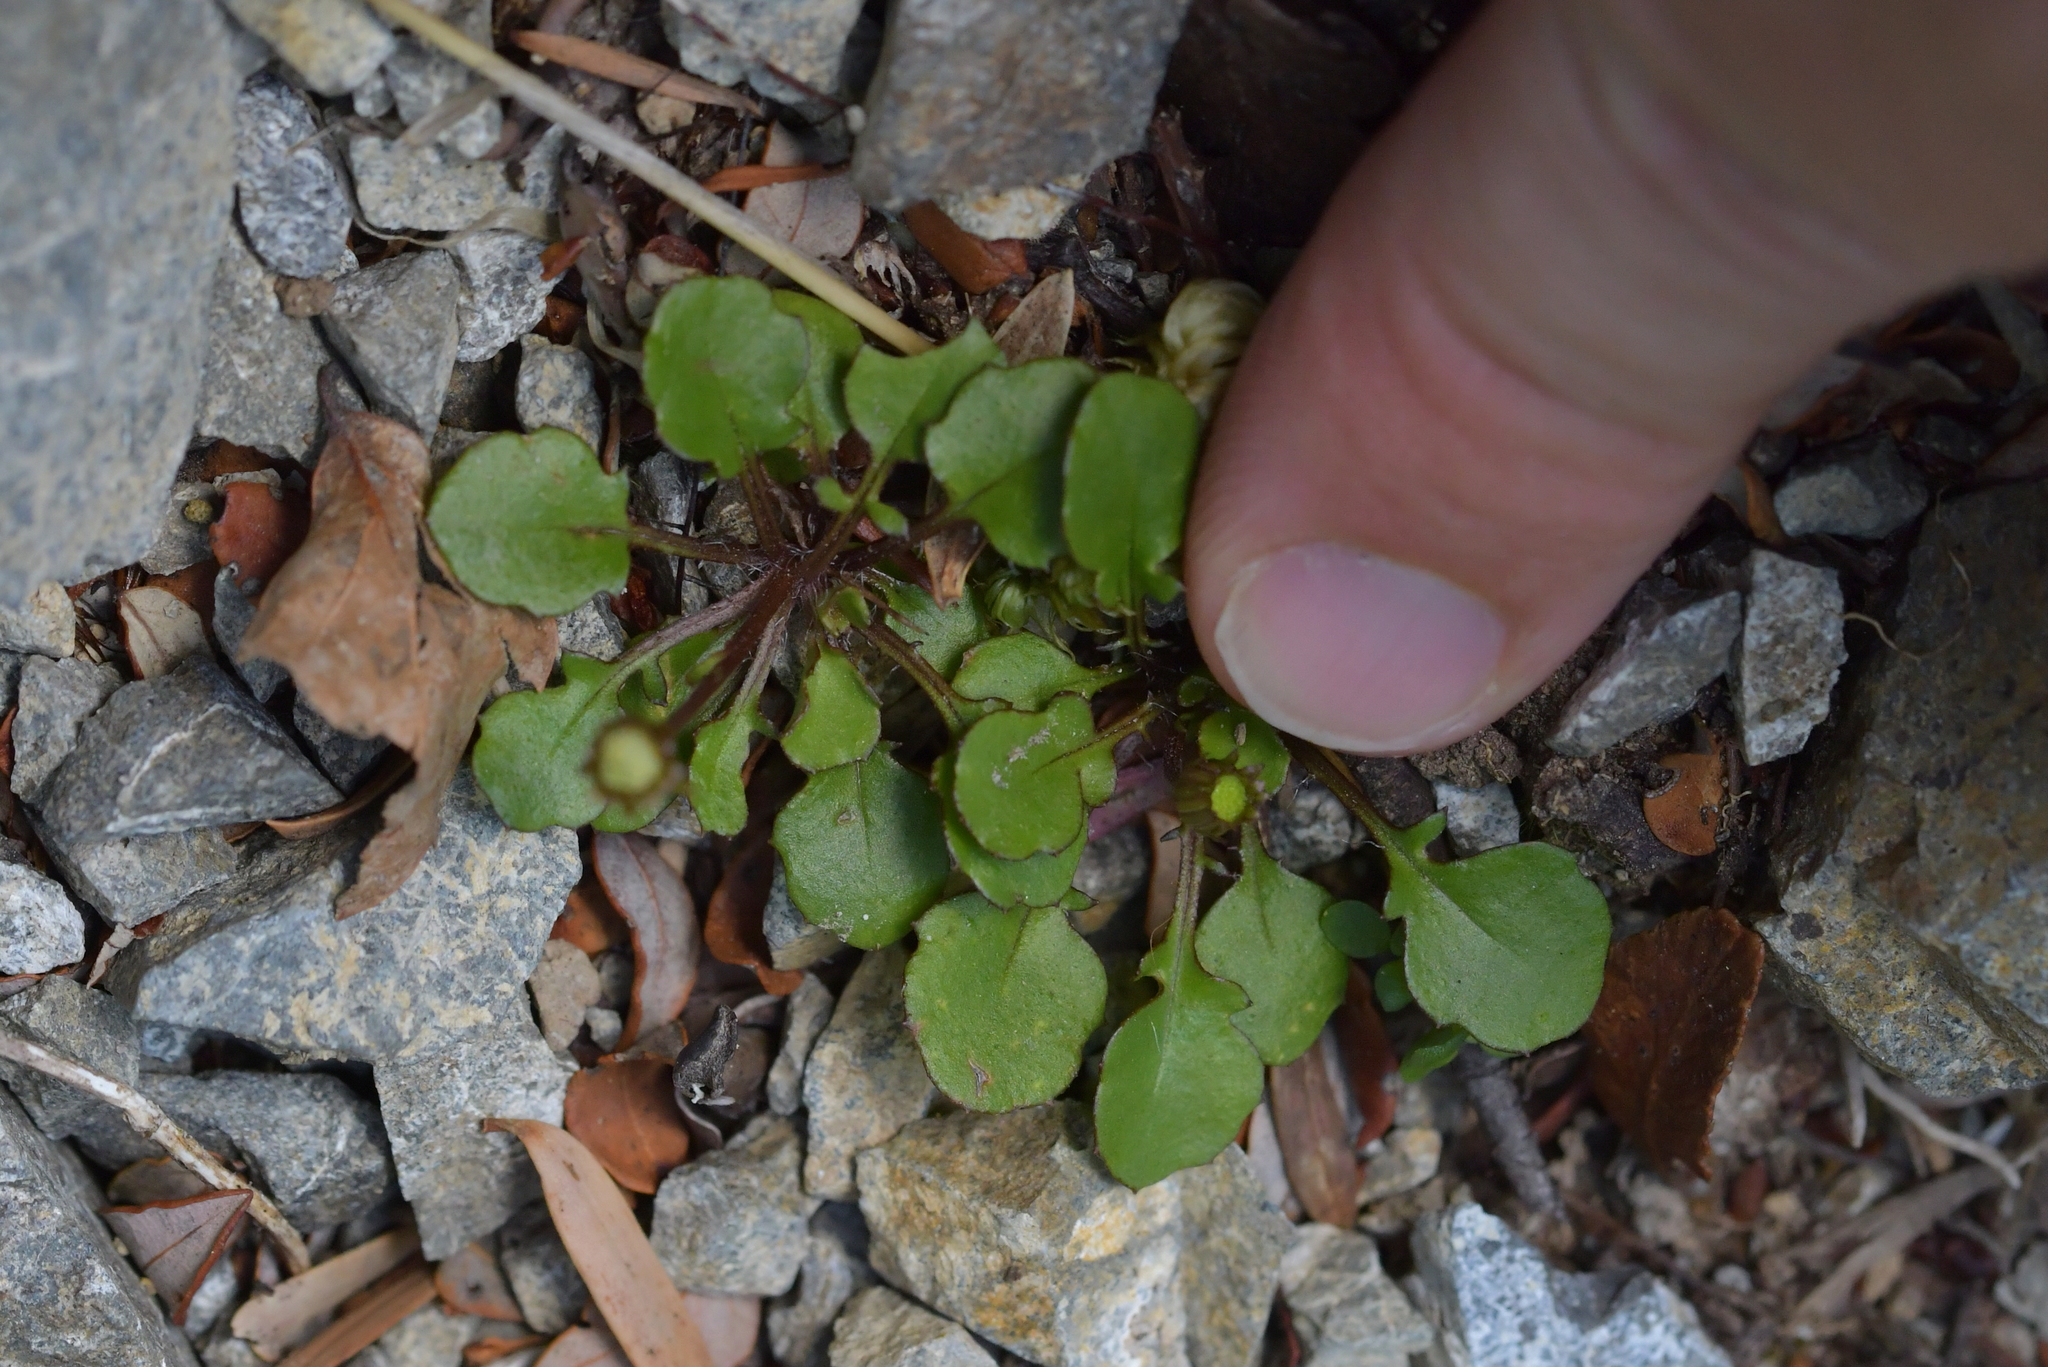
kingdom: Plantae
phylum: Tracheophyta
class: Magnoliopsida
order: Asterales
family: Asteraceae
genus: Lagenophora
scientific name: Lagenophora pumila
